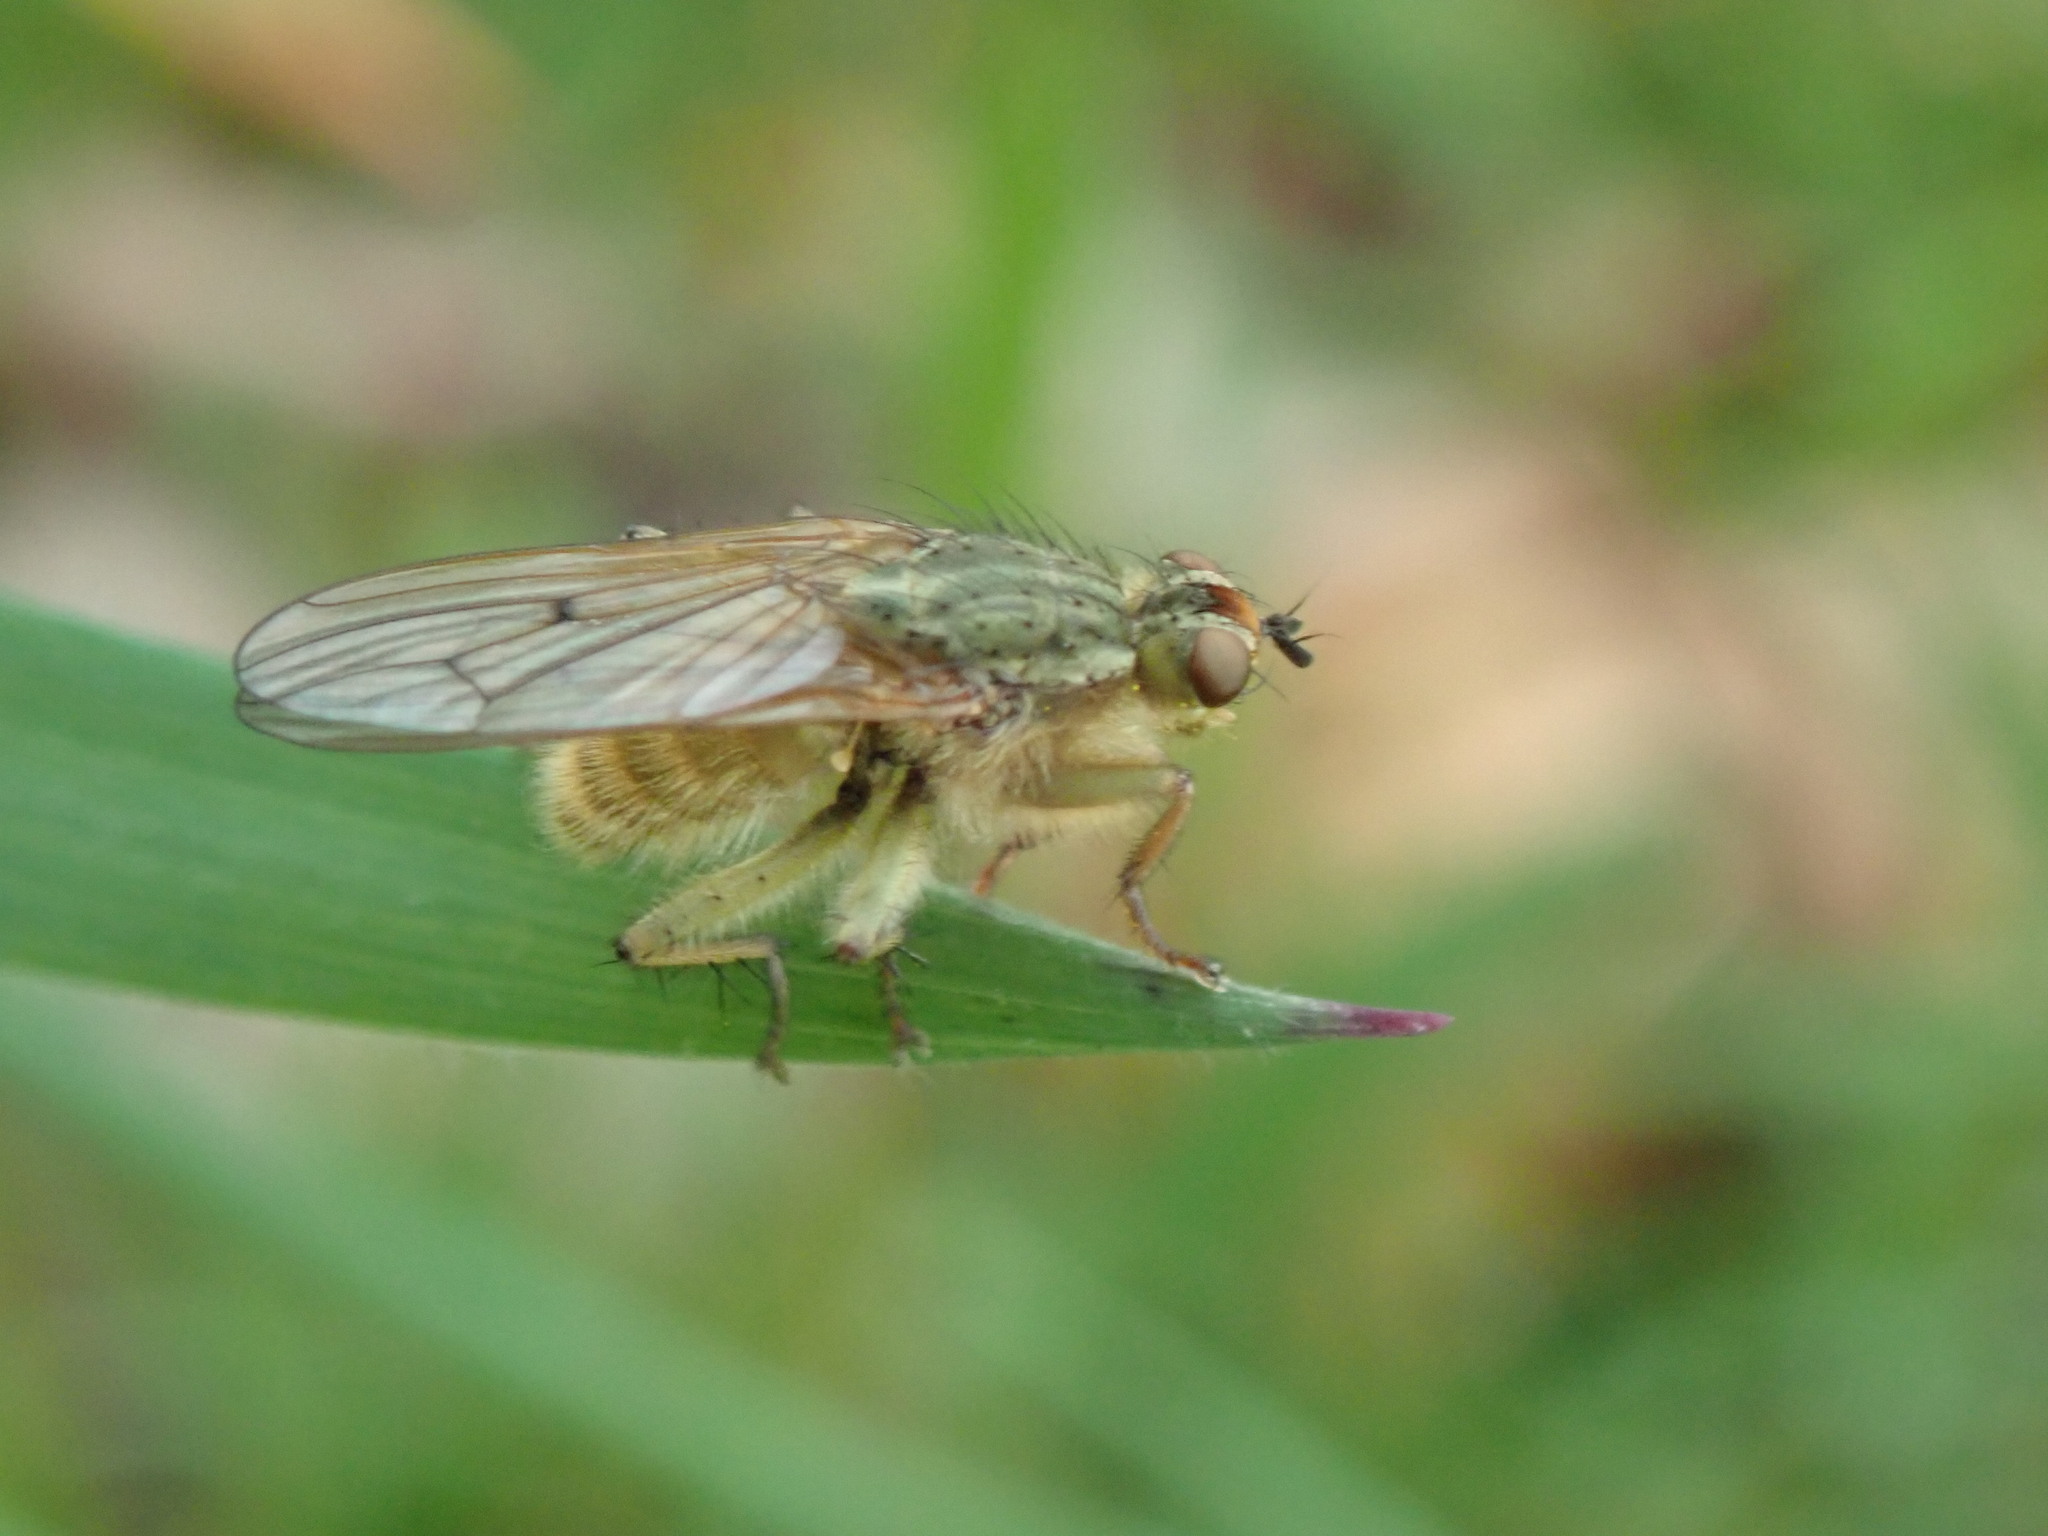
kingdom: Animalia
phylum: Arthropoda
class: Insecta
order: Diptera
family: Scathophagidae
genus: Scathophaga
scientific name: Scathophaga stercoraria
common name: Yellow dung fly
